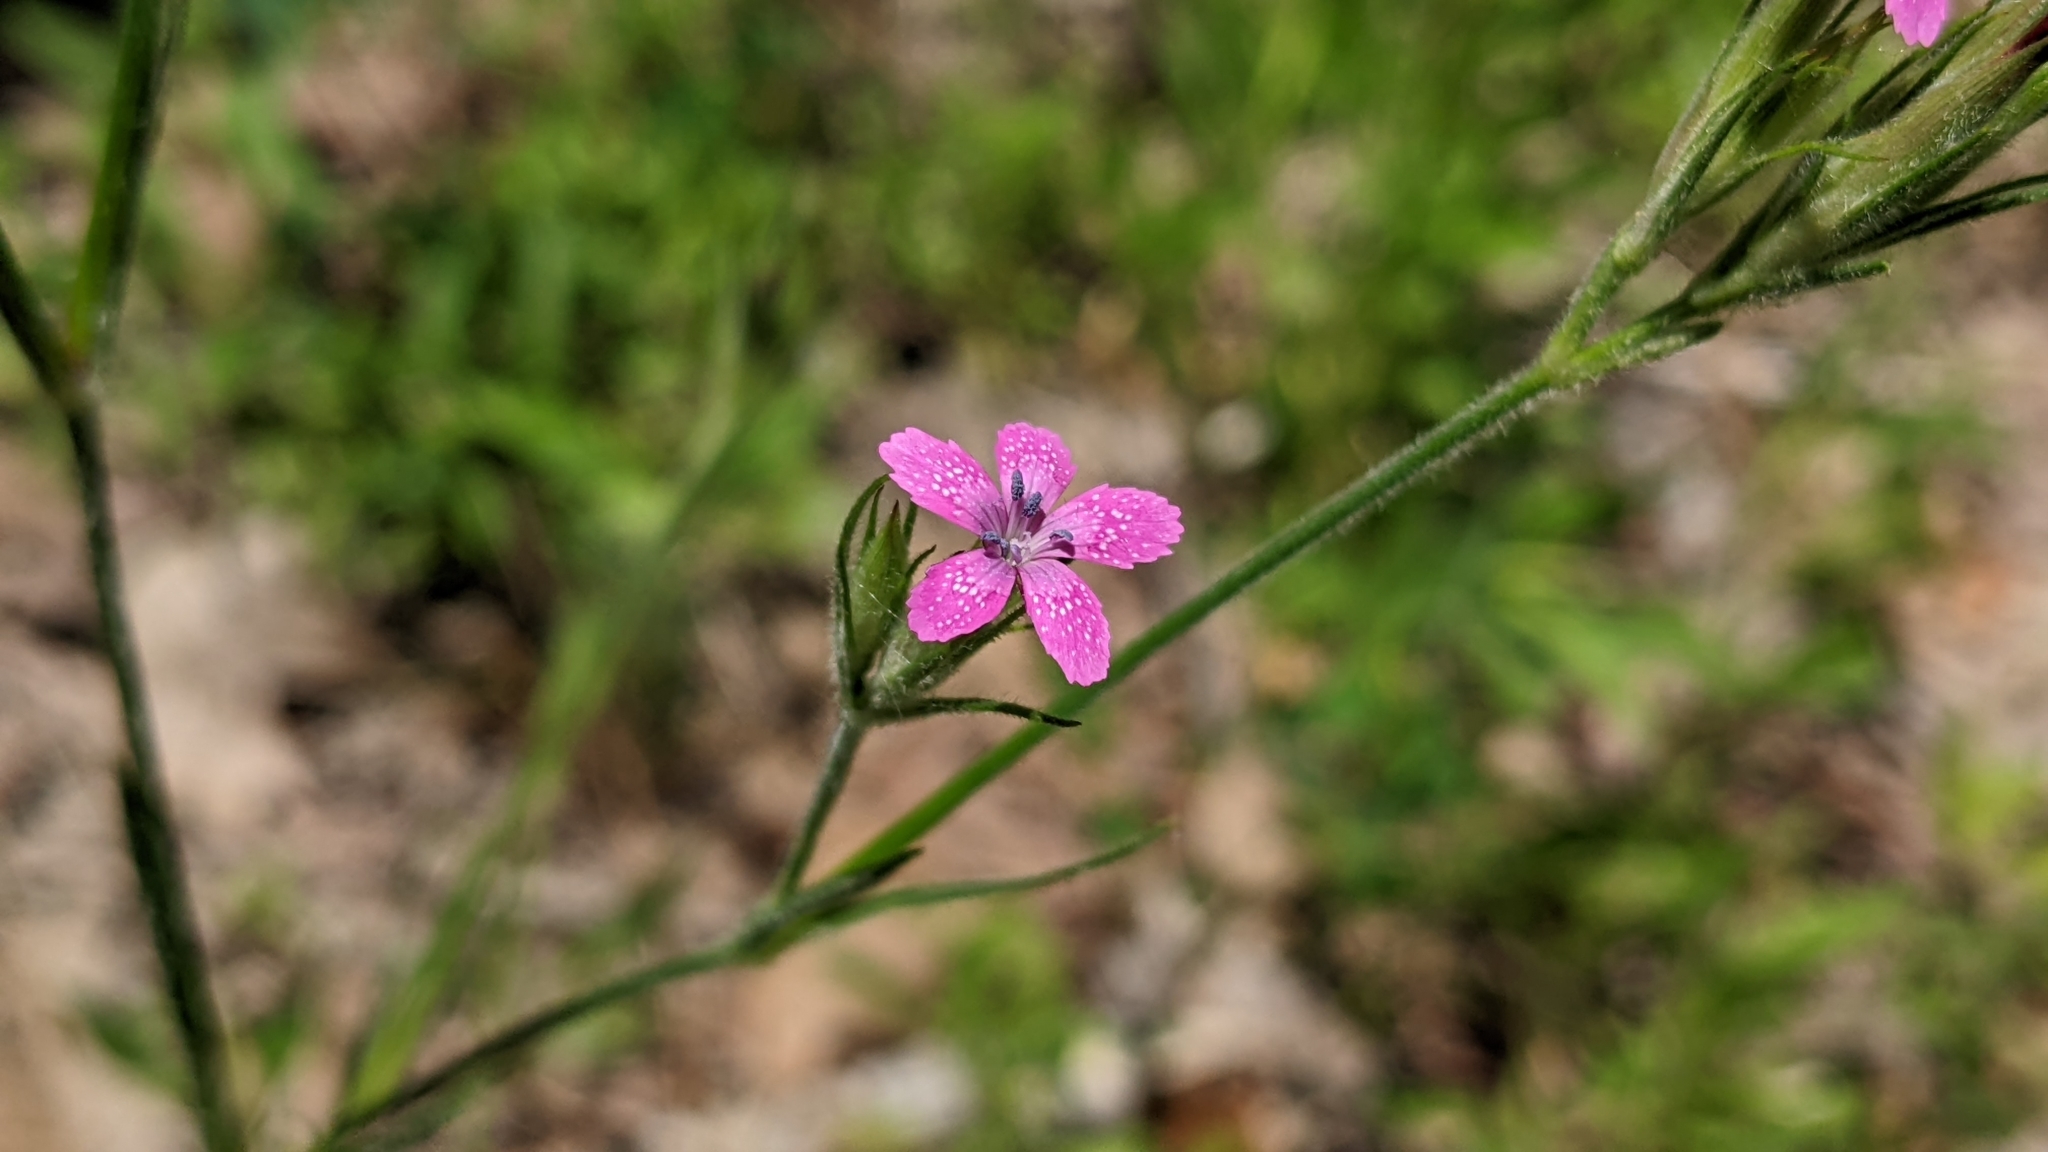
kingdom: Plantae
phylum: Tracheophyta
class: Magnoliopsida
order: Caryophyllales
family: Caryophyllaceae
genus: Dianthus
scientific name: Dianthus armeria
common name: Deptford pink
